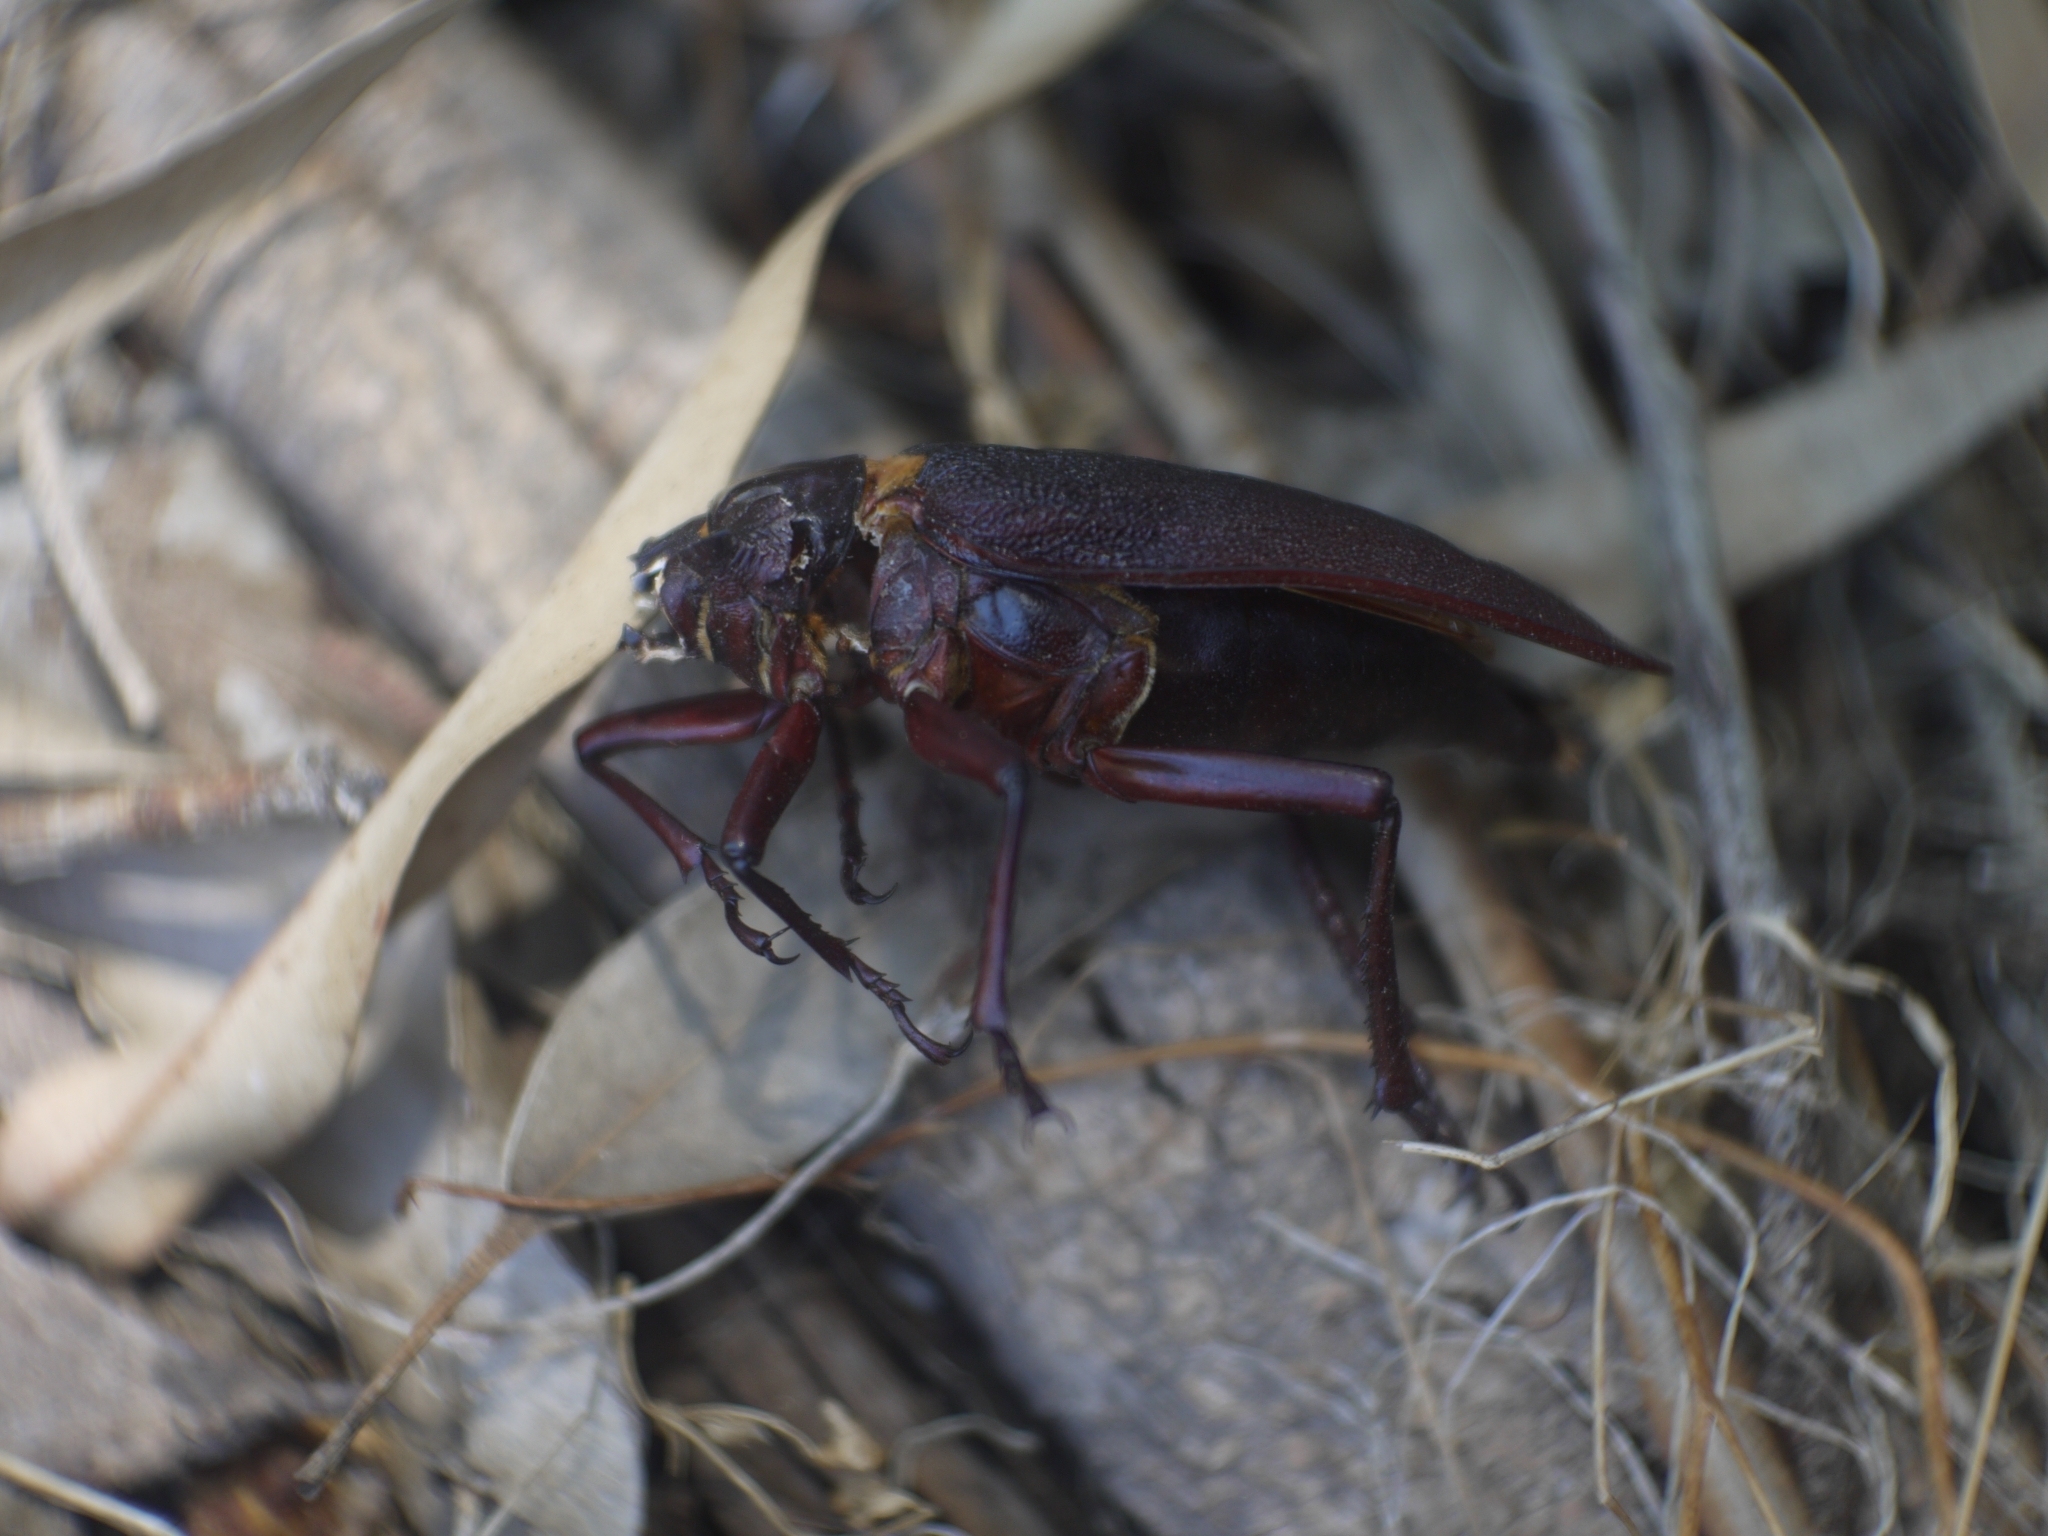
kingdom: Animalia
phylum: Arthropoda
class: Insecta
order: Coleoptera
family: Cerambycidae
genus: Acanthinodera
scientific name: Acanthinodera cumingii
